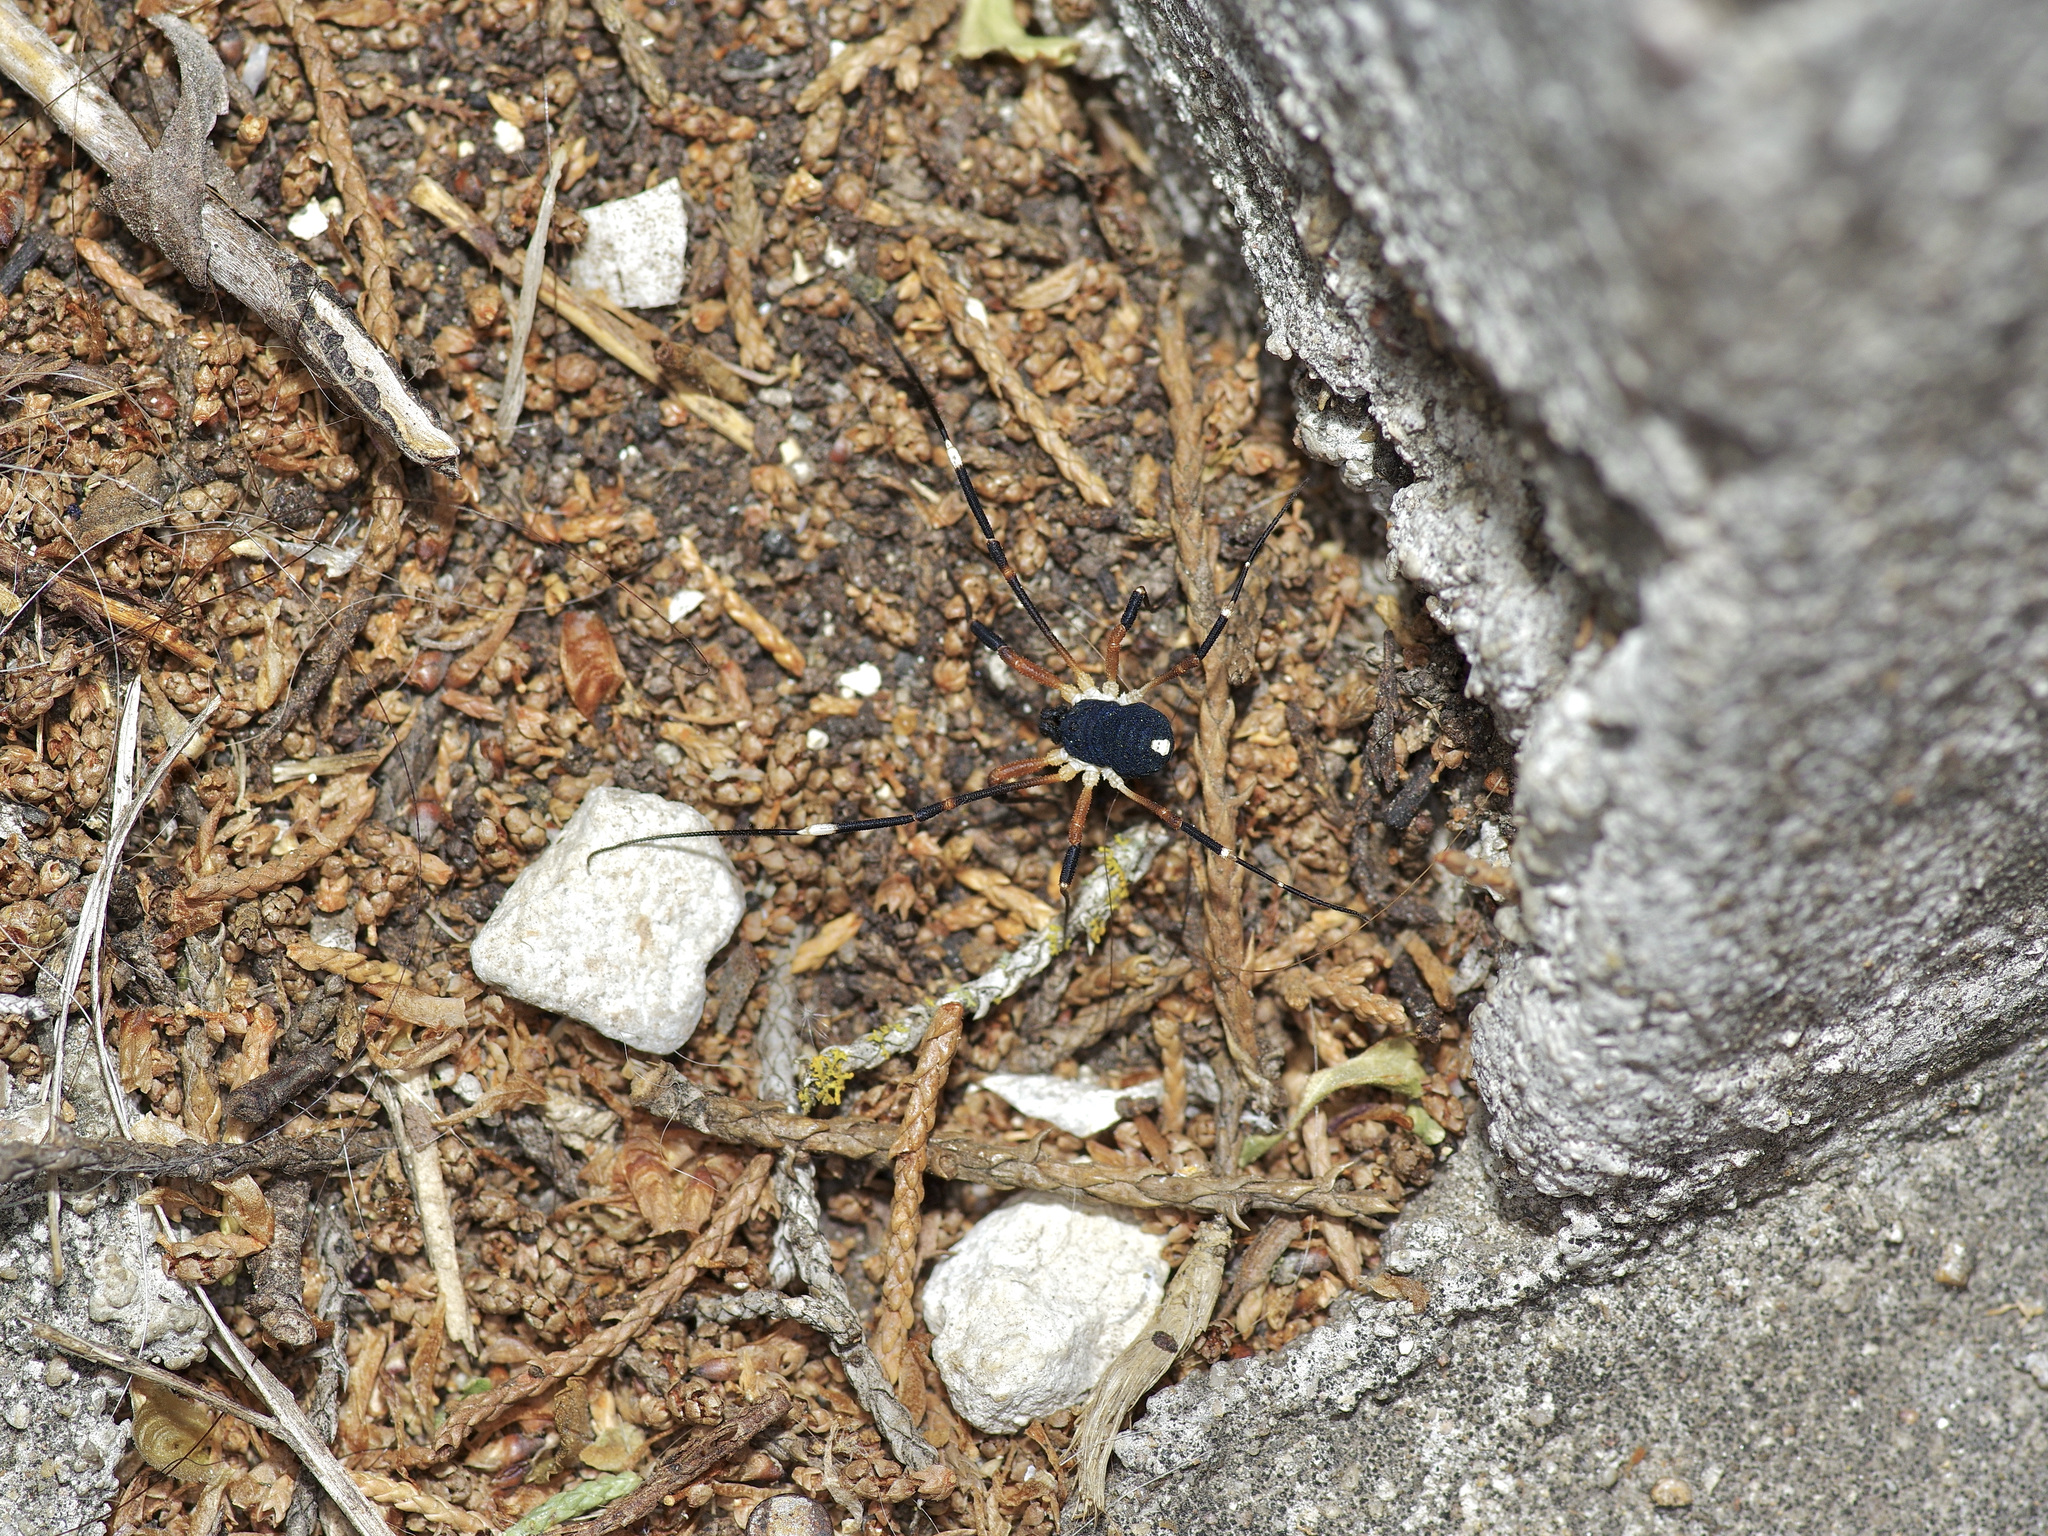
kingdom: Animalia
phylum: Arthropoda
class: Arachnida
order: Opiliones
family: Globipedidae
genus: Dalquestia
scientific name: Dalquestia formosa
